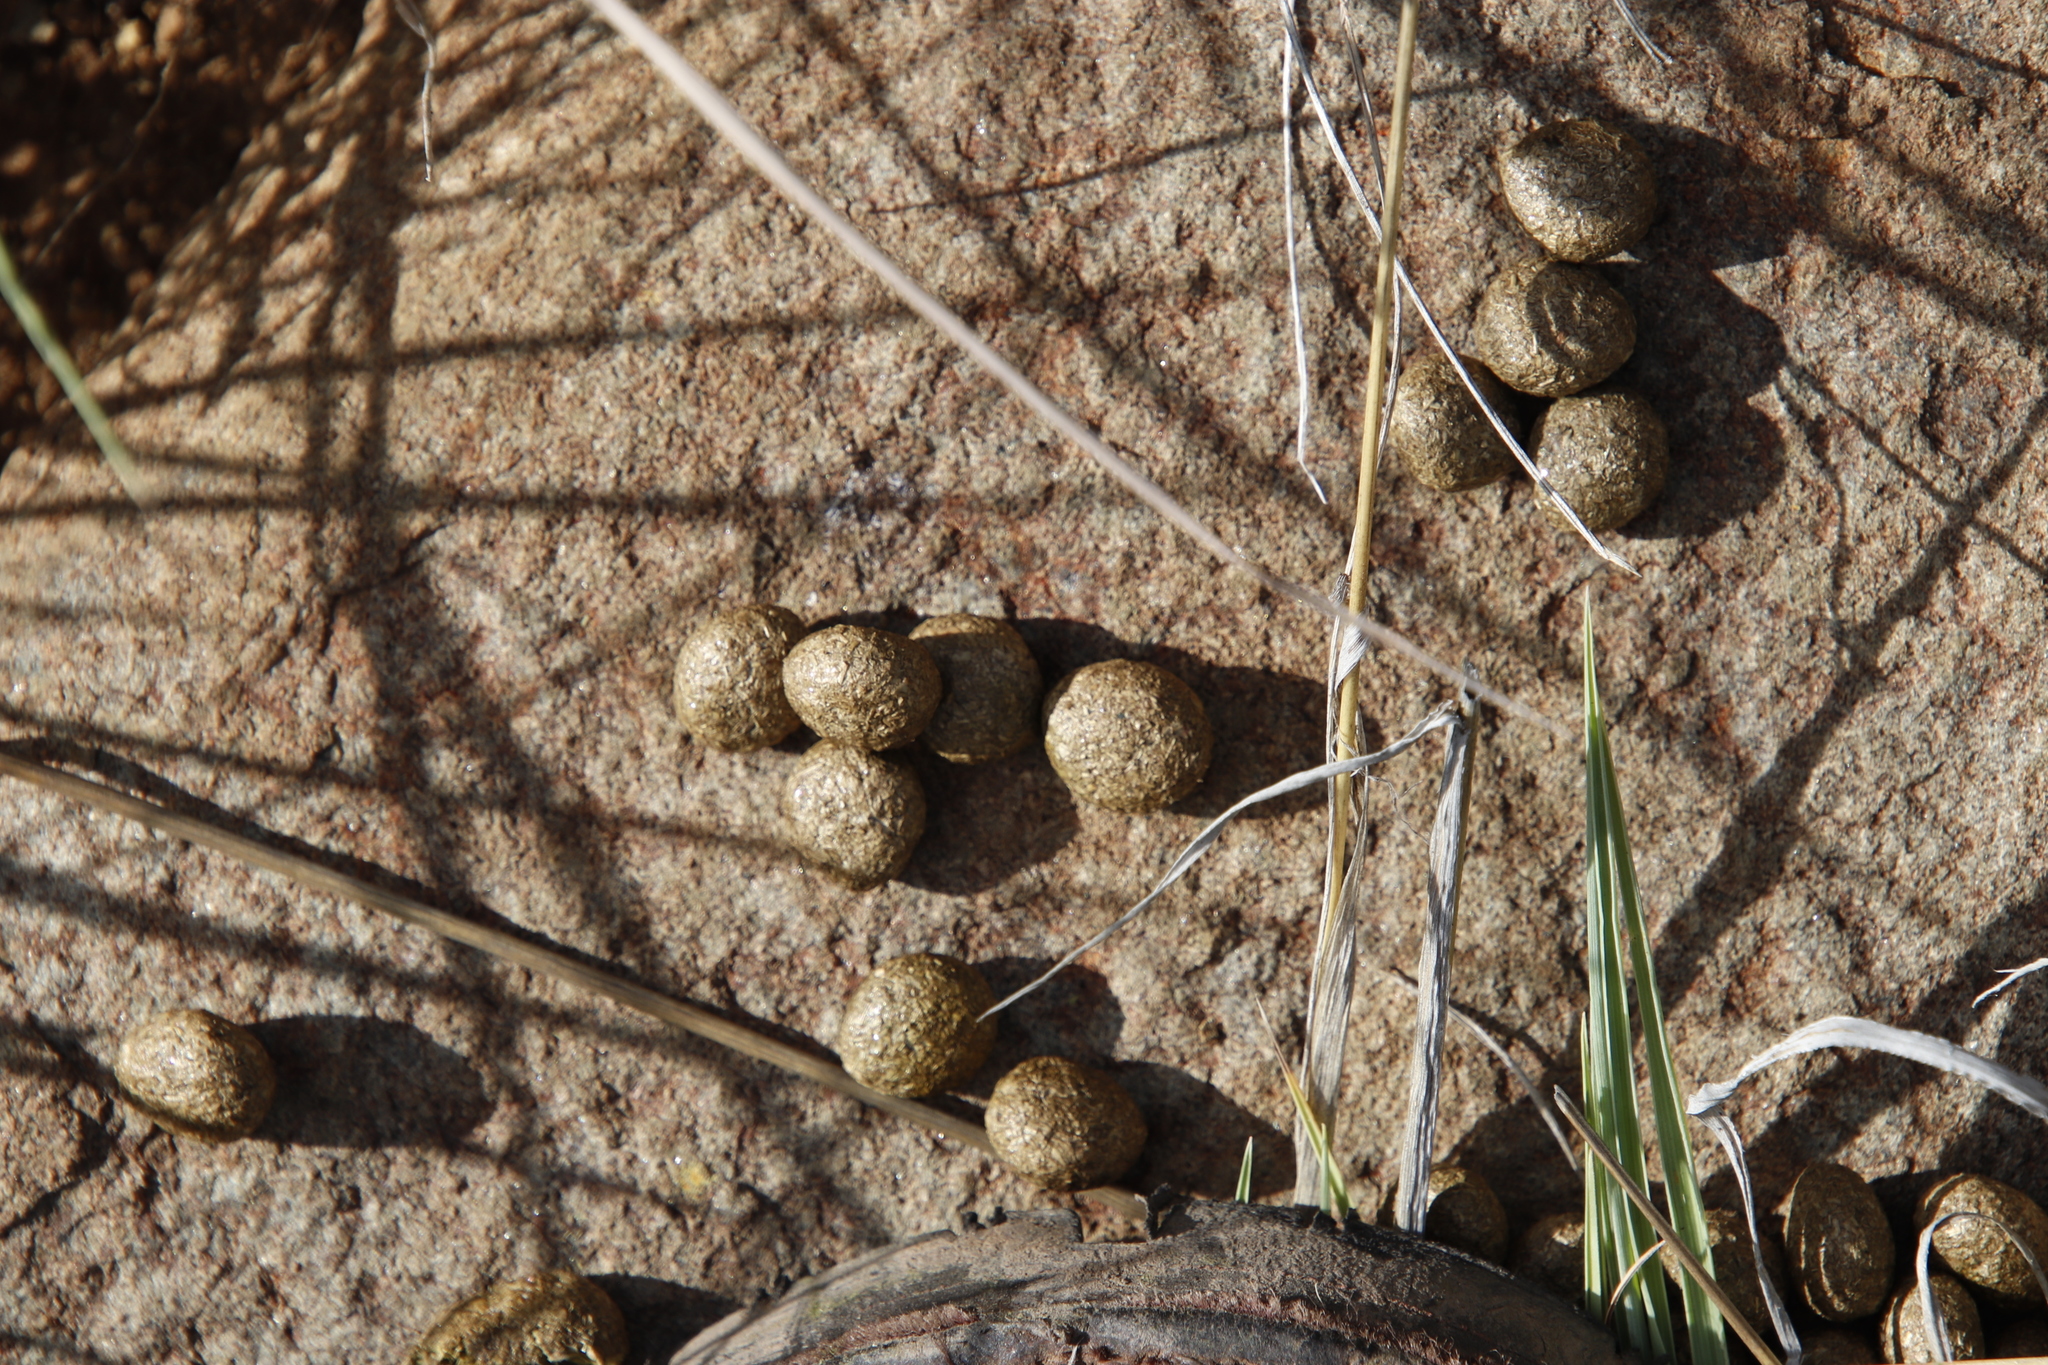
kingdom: Animalia
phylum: Chordata
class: Mammalia
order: Lagomorpha
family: Leporidae
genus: Pronolagus
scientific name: Pronolagus saundersiae
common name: Hewitt's red rock hare
